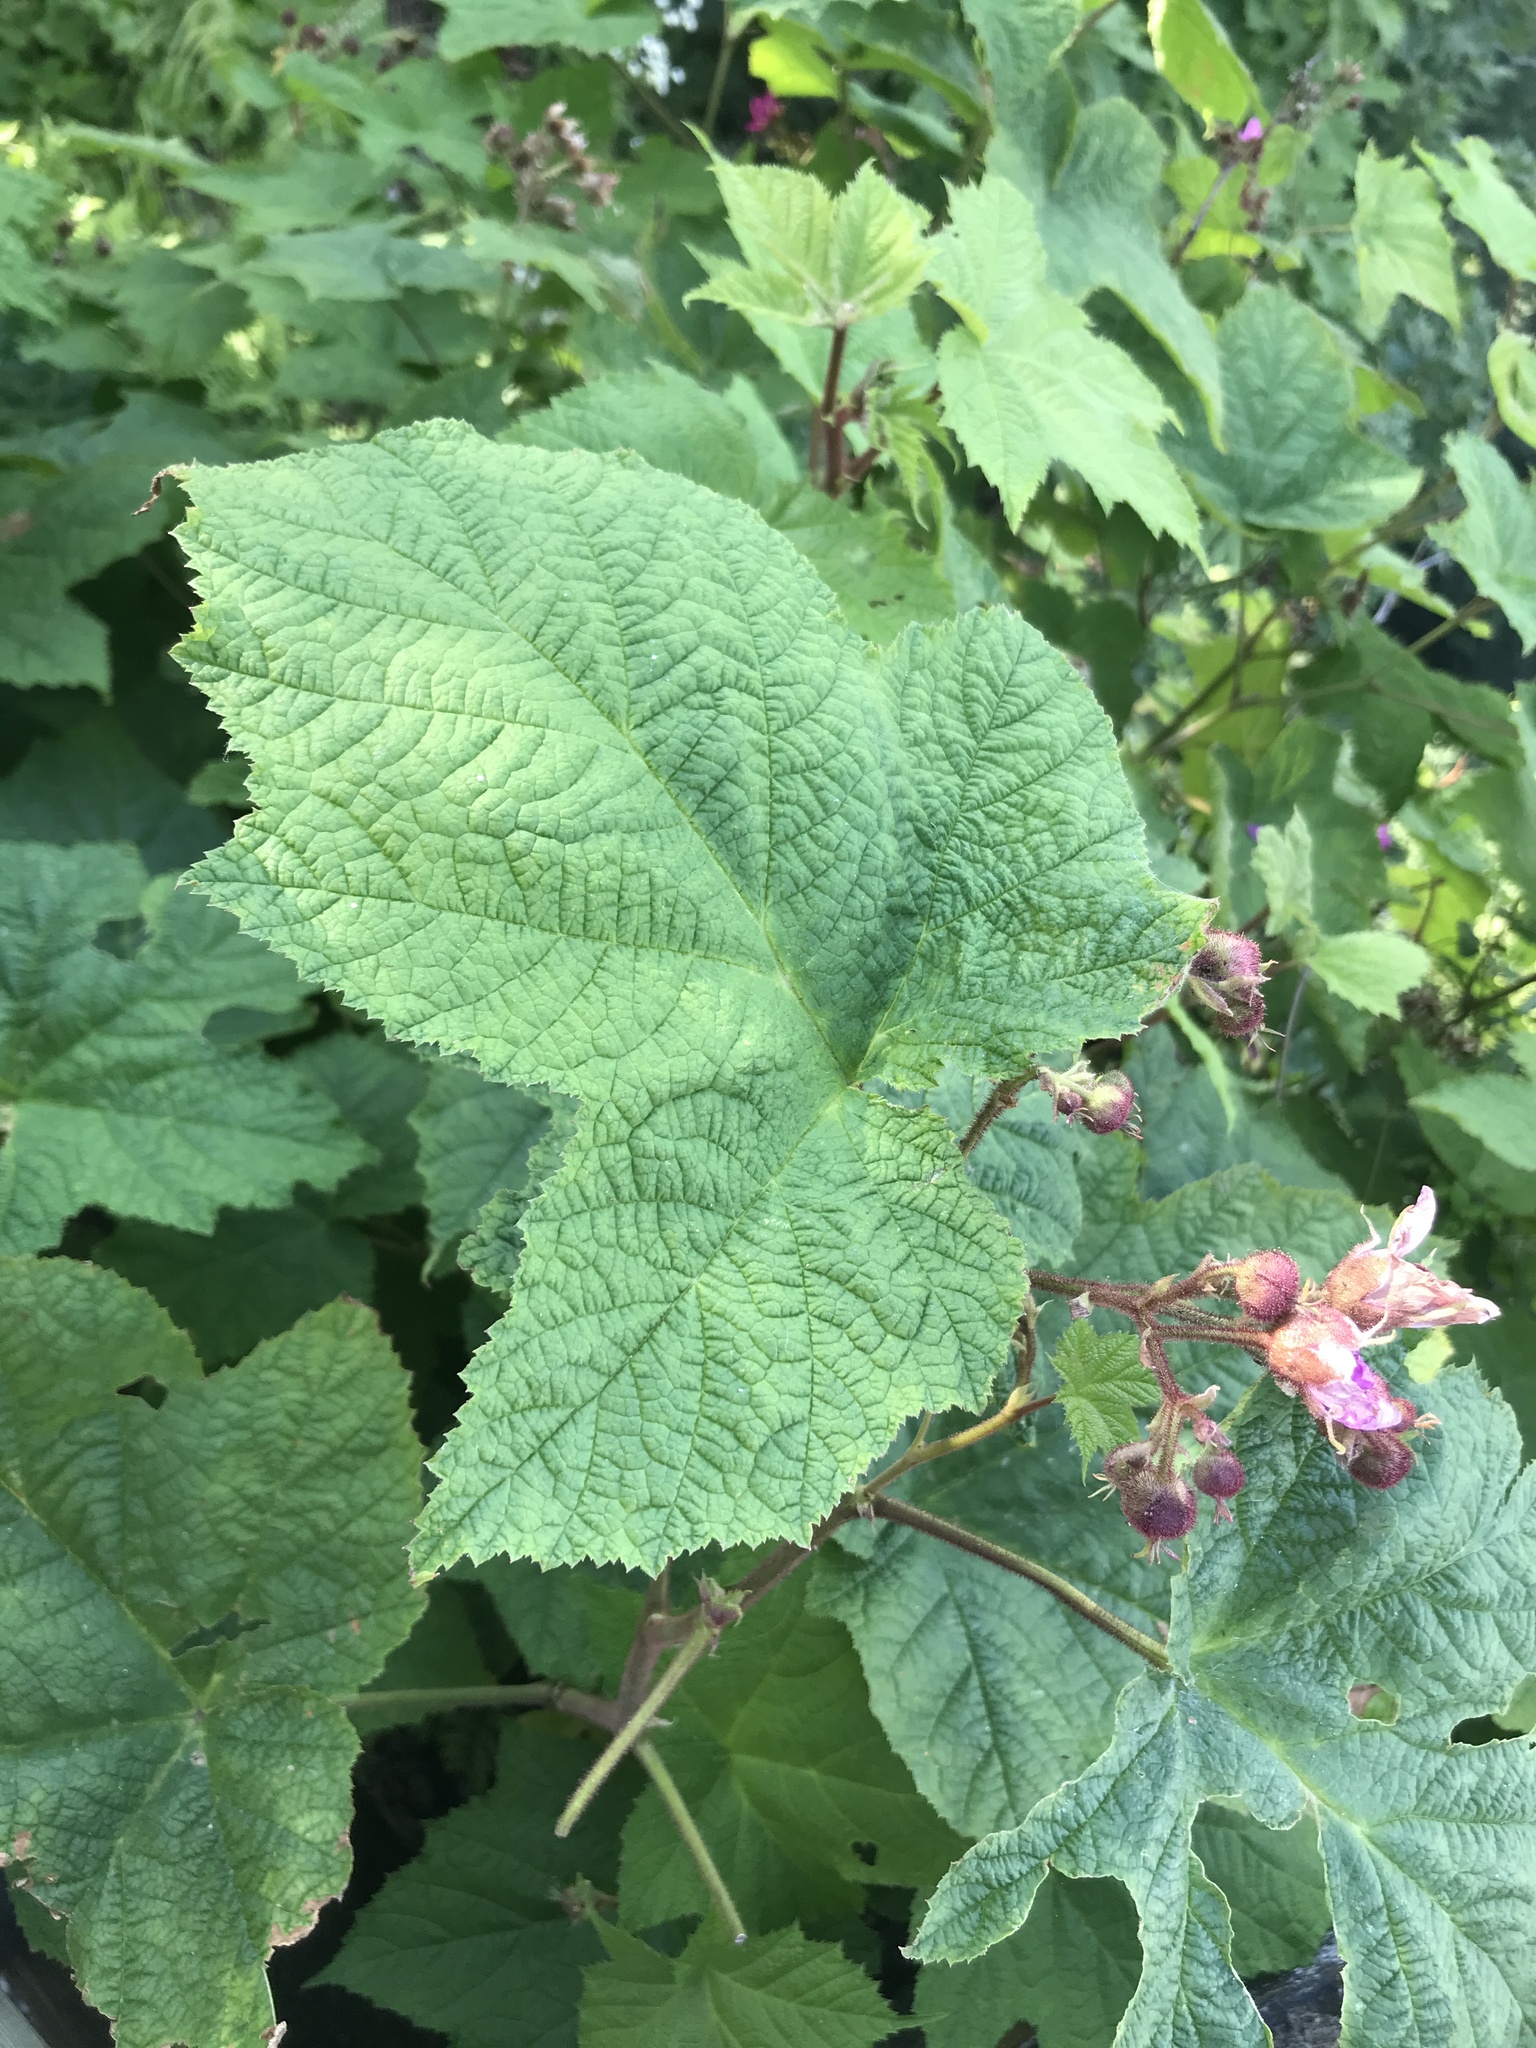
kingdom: Plantae
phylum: Tracheophyta
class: Magnoliopsida
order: Rosales
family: Rosaceae
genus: Rubus
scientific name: Rubus odoratus
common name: Purple-flowered raspberry
